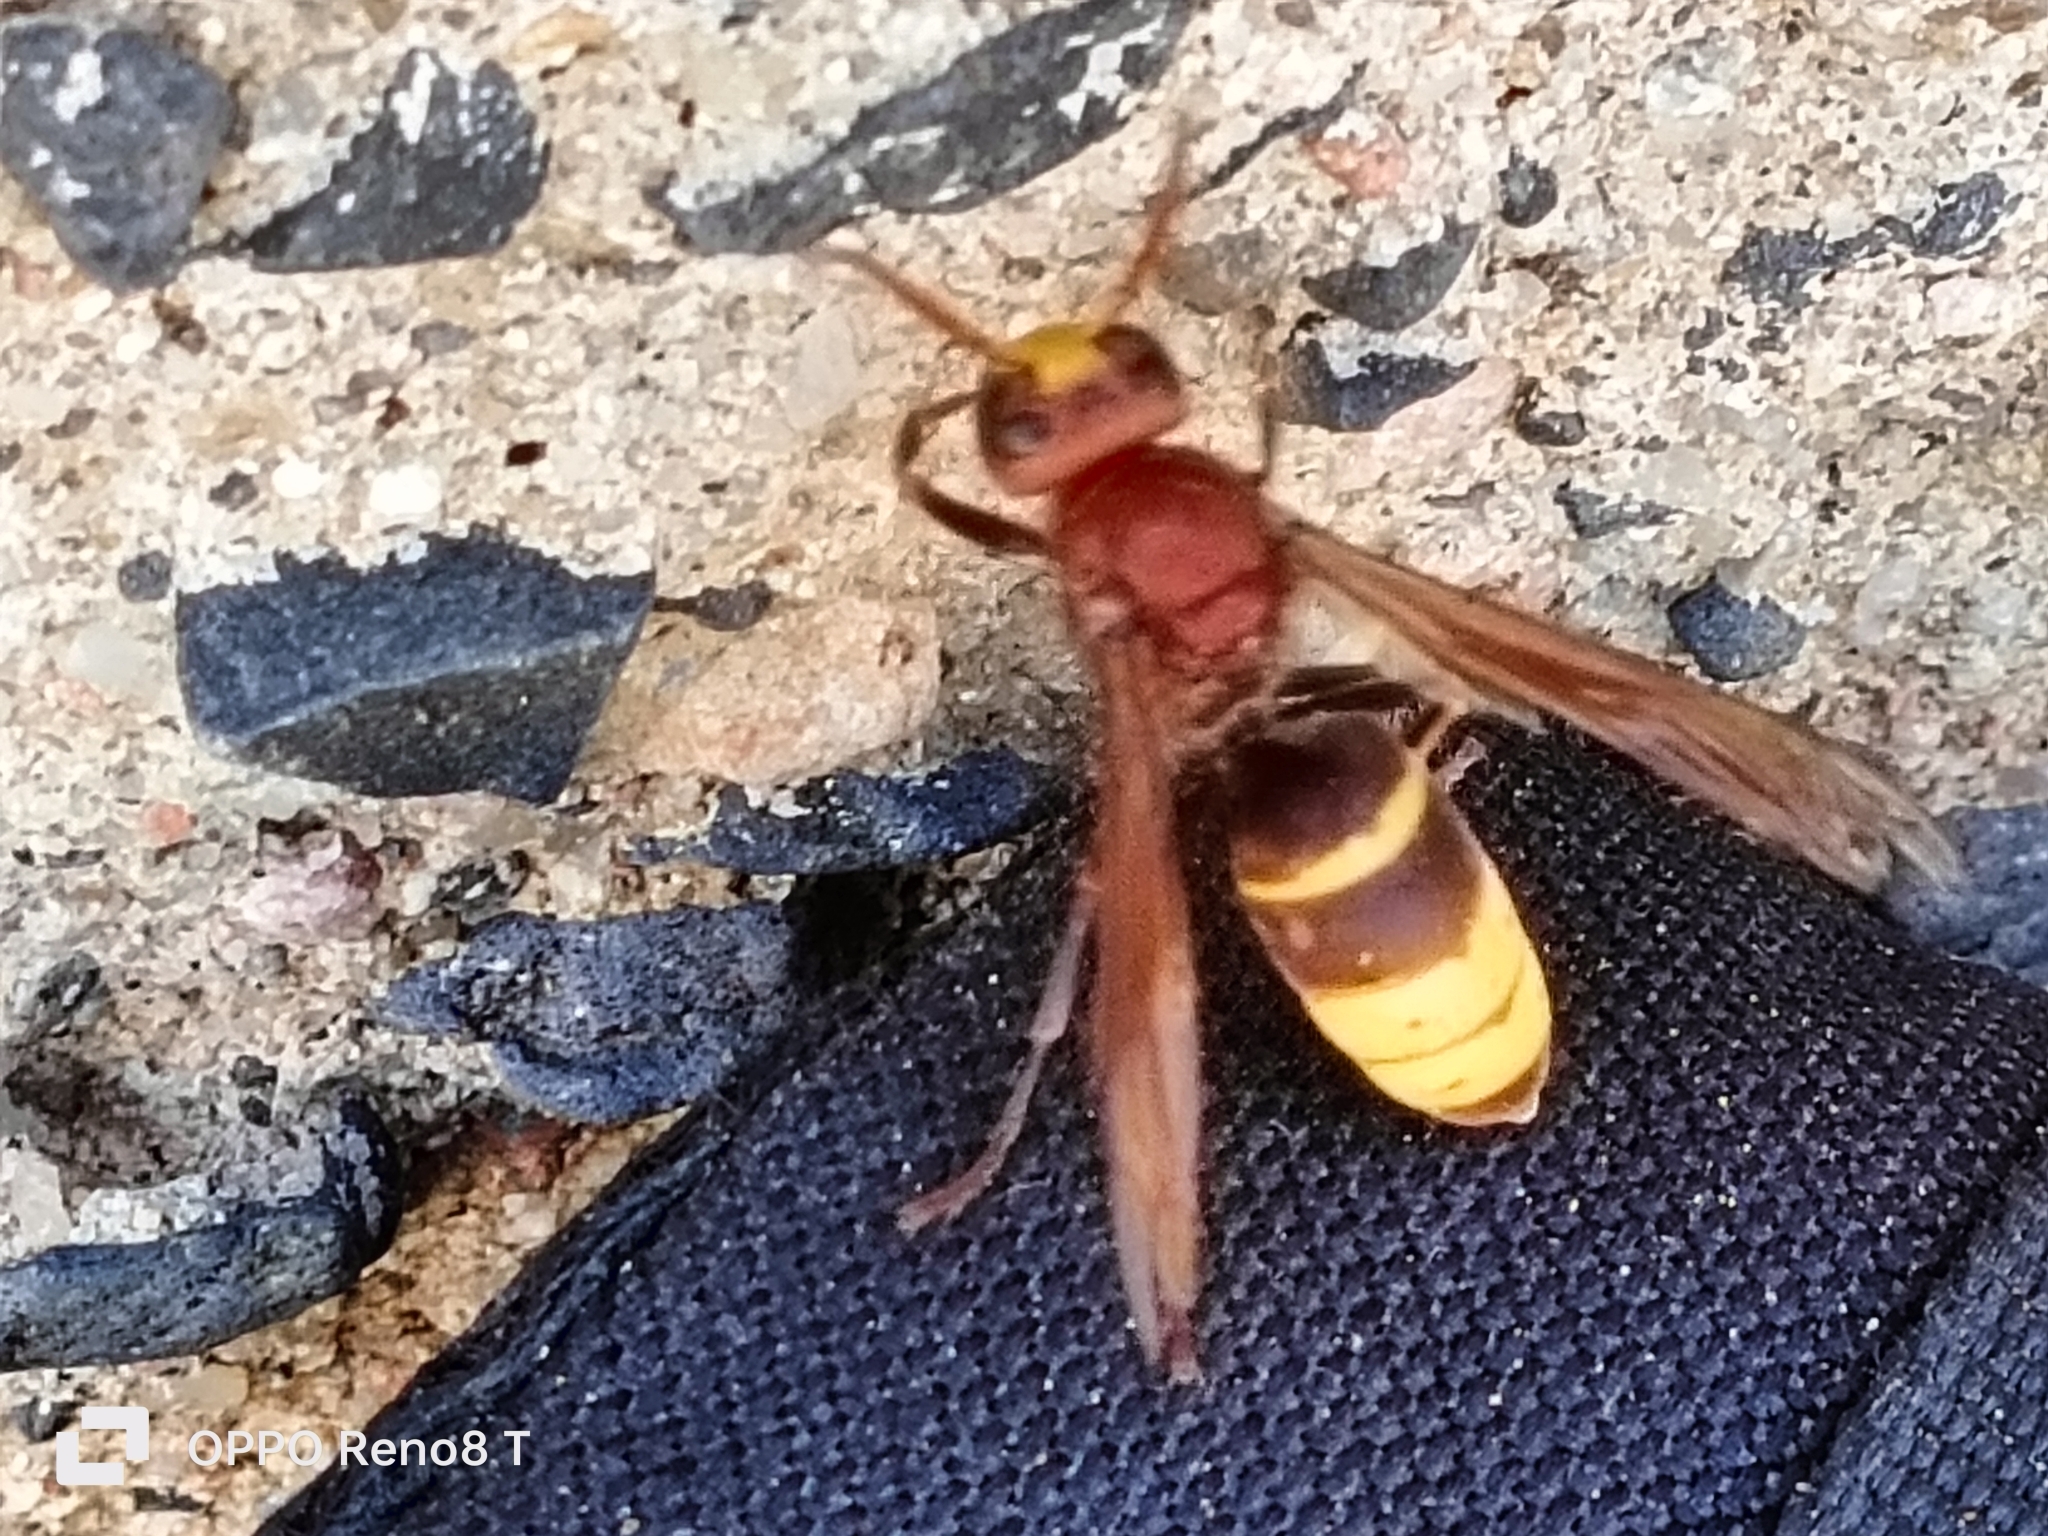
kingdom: Animalia
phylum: Arthropoda
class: Insecta
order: Hymenoptera
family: Vespidae
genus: Vespa
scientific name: Vespa orientalis
